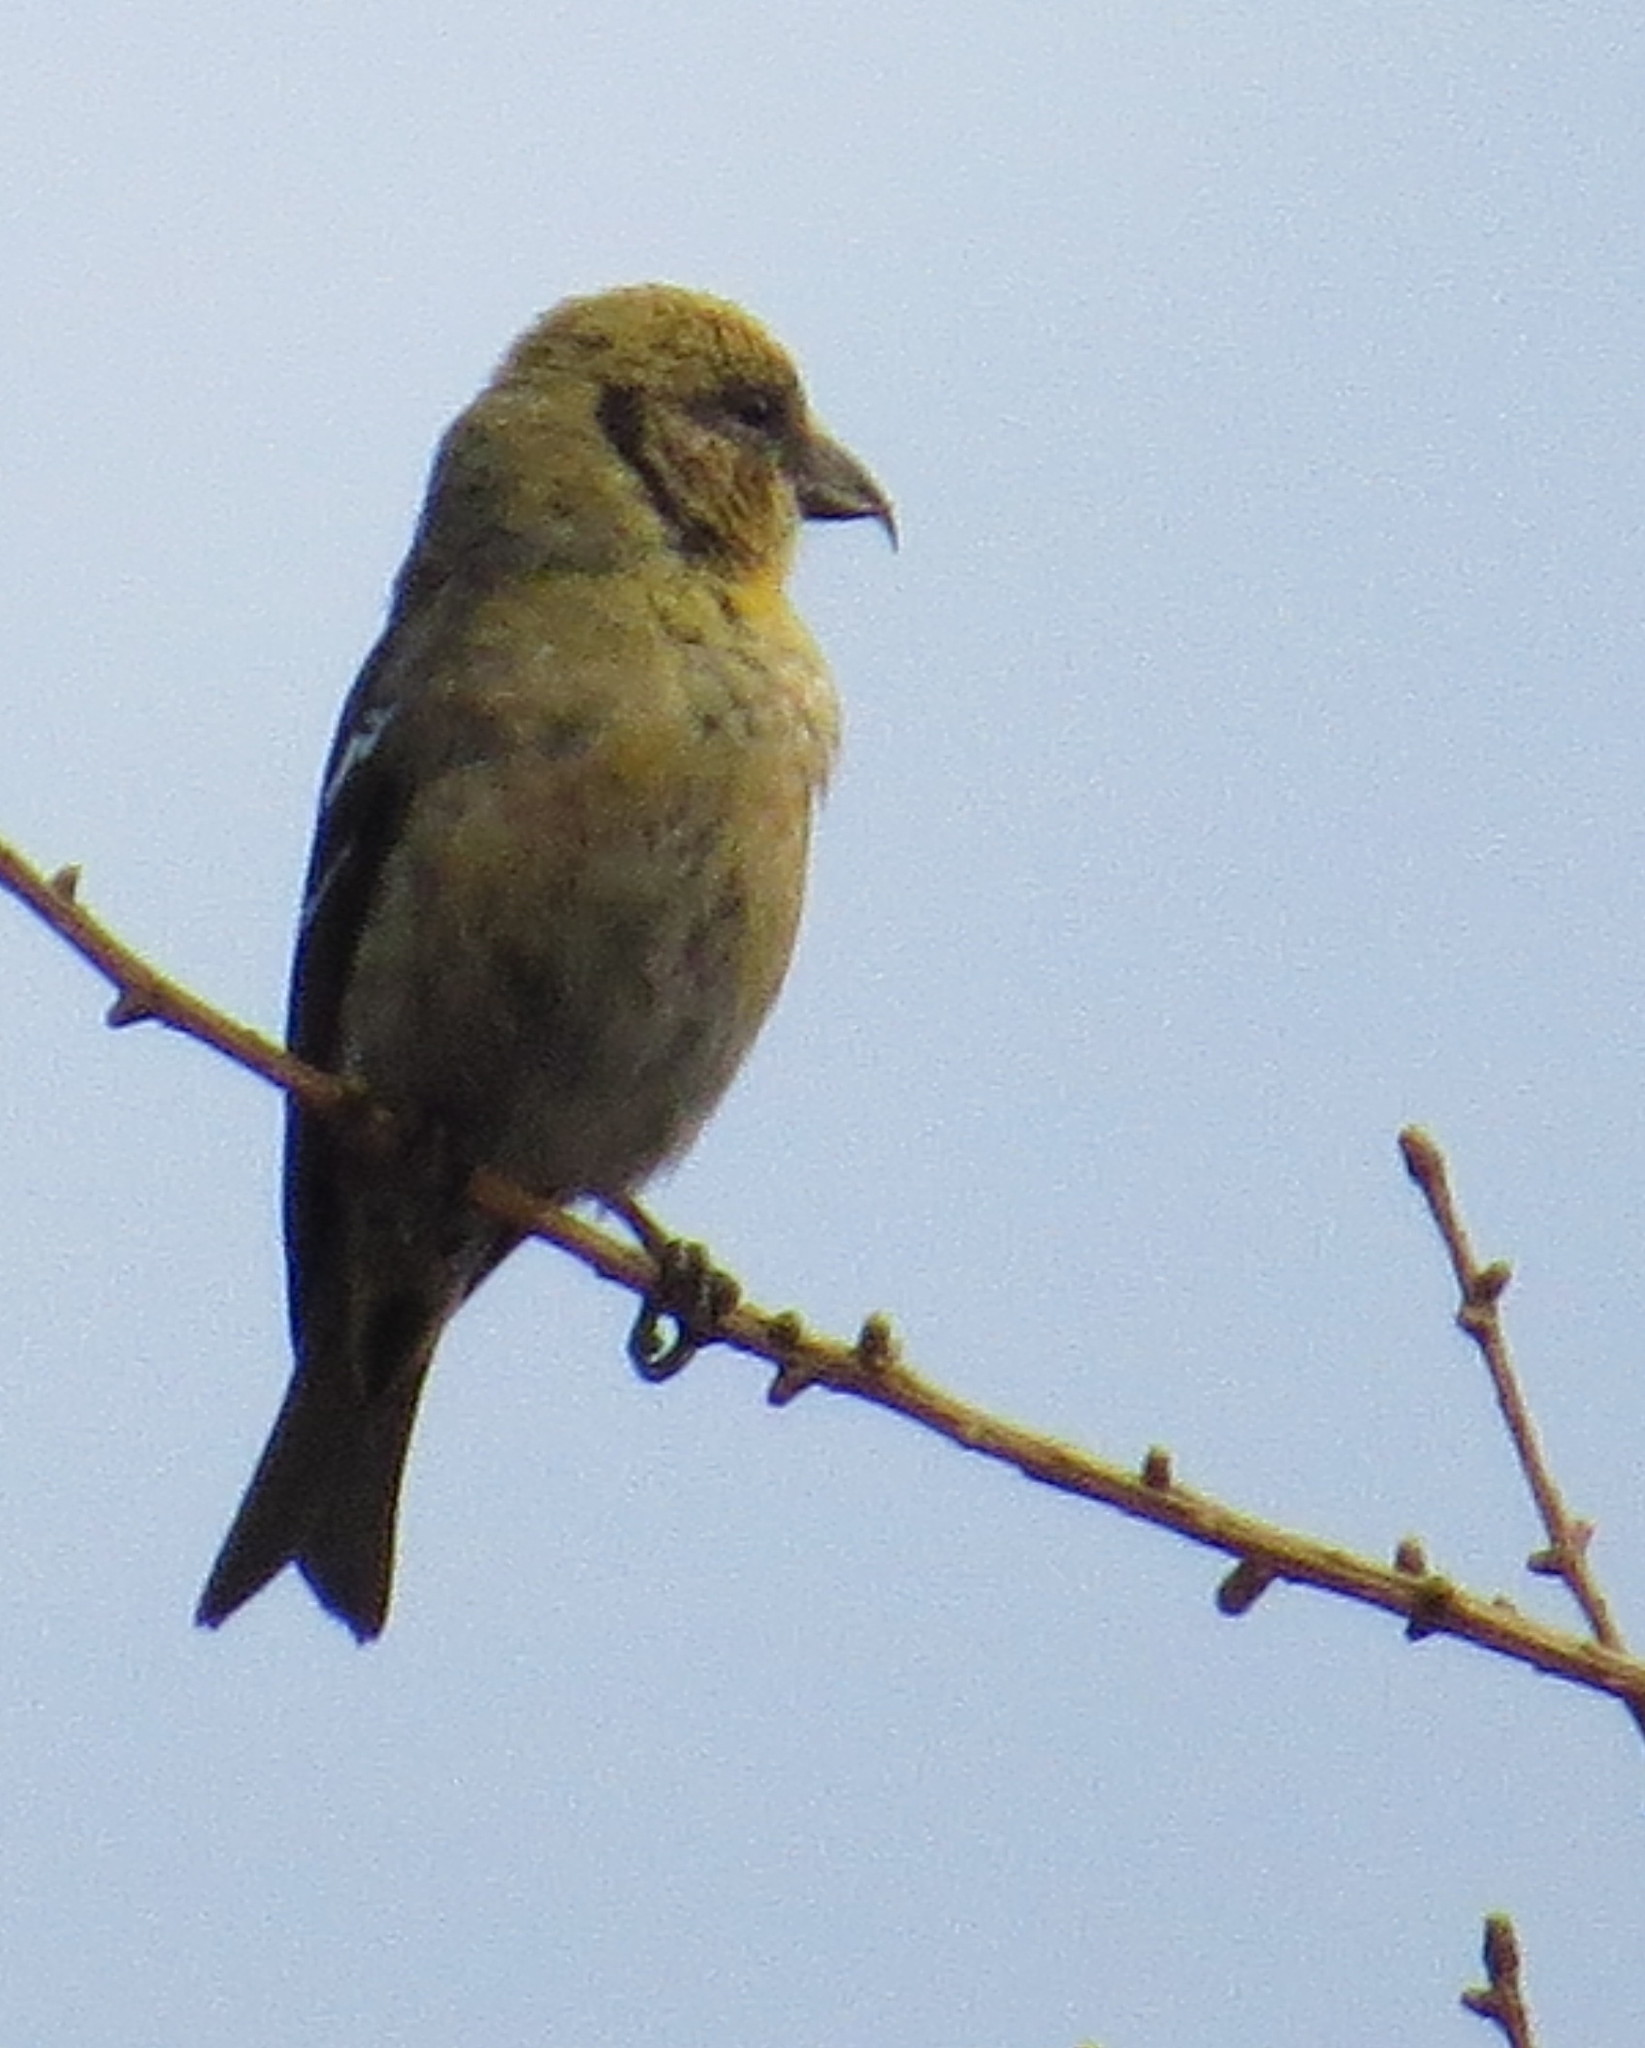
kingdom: Animalia
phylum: Chordata
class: Aves
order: Passeriformes
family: Fringillidae
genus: Loxia
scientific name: Loxia leucoptera
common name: Two-barred crossbill
